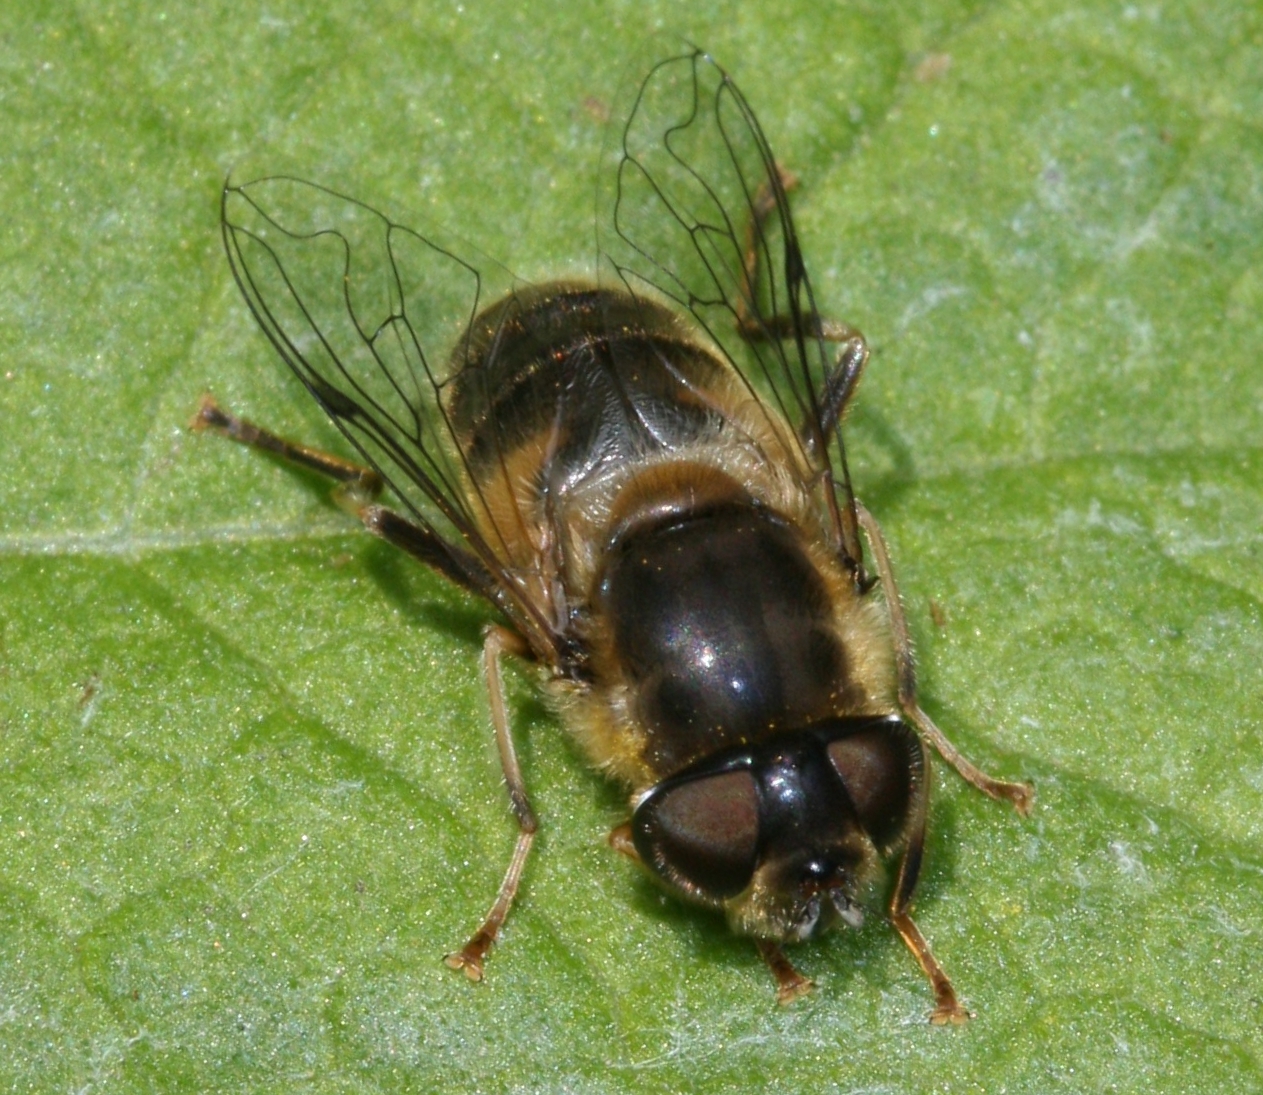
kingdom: Animalia
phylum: Arthropoda
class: Insecta
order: Diptera
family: Syrphidae
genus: Eristalis
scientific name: Eristalis pertinax
